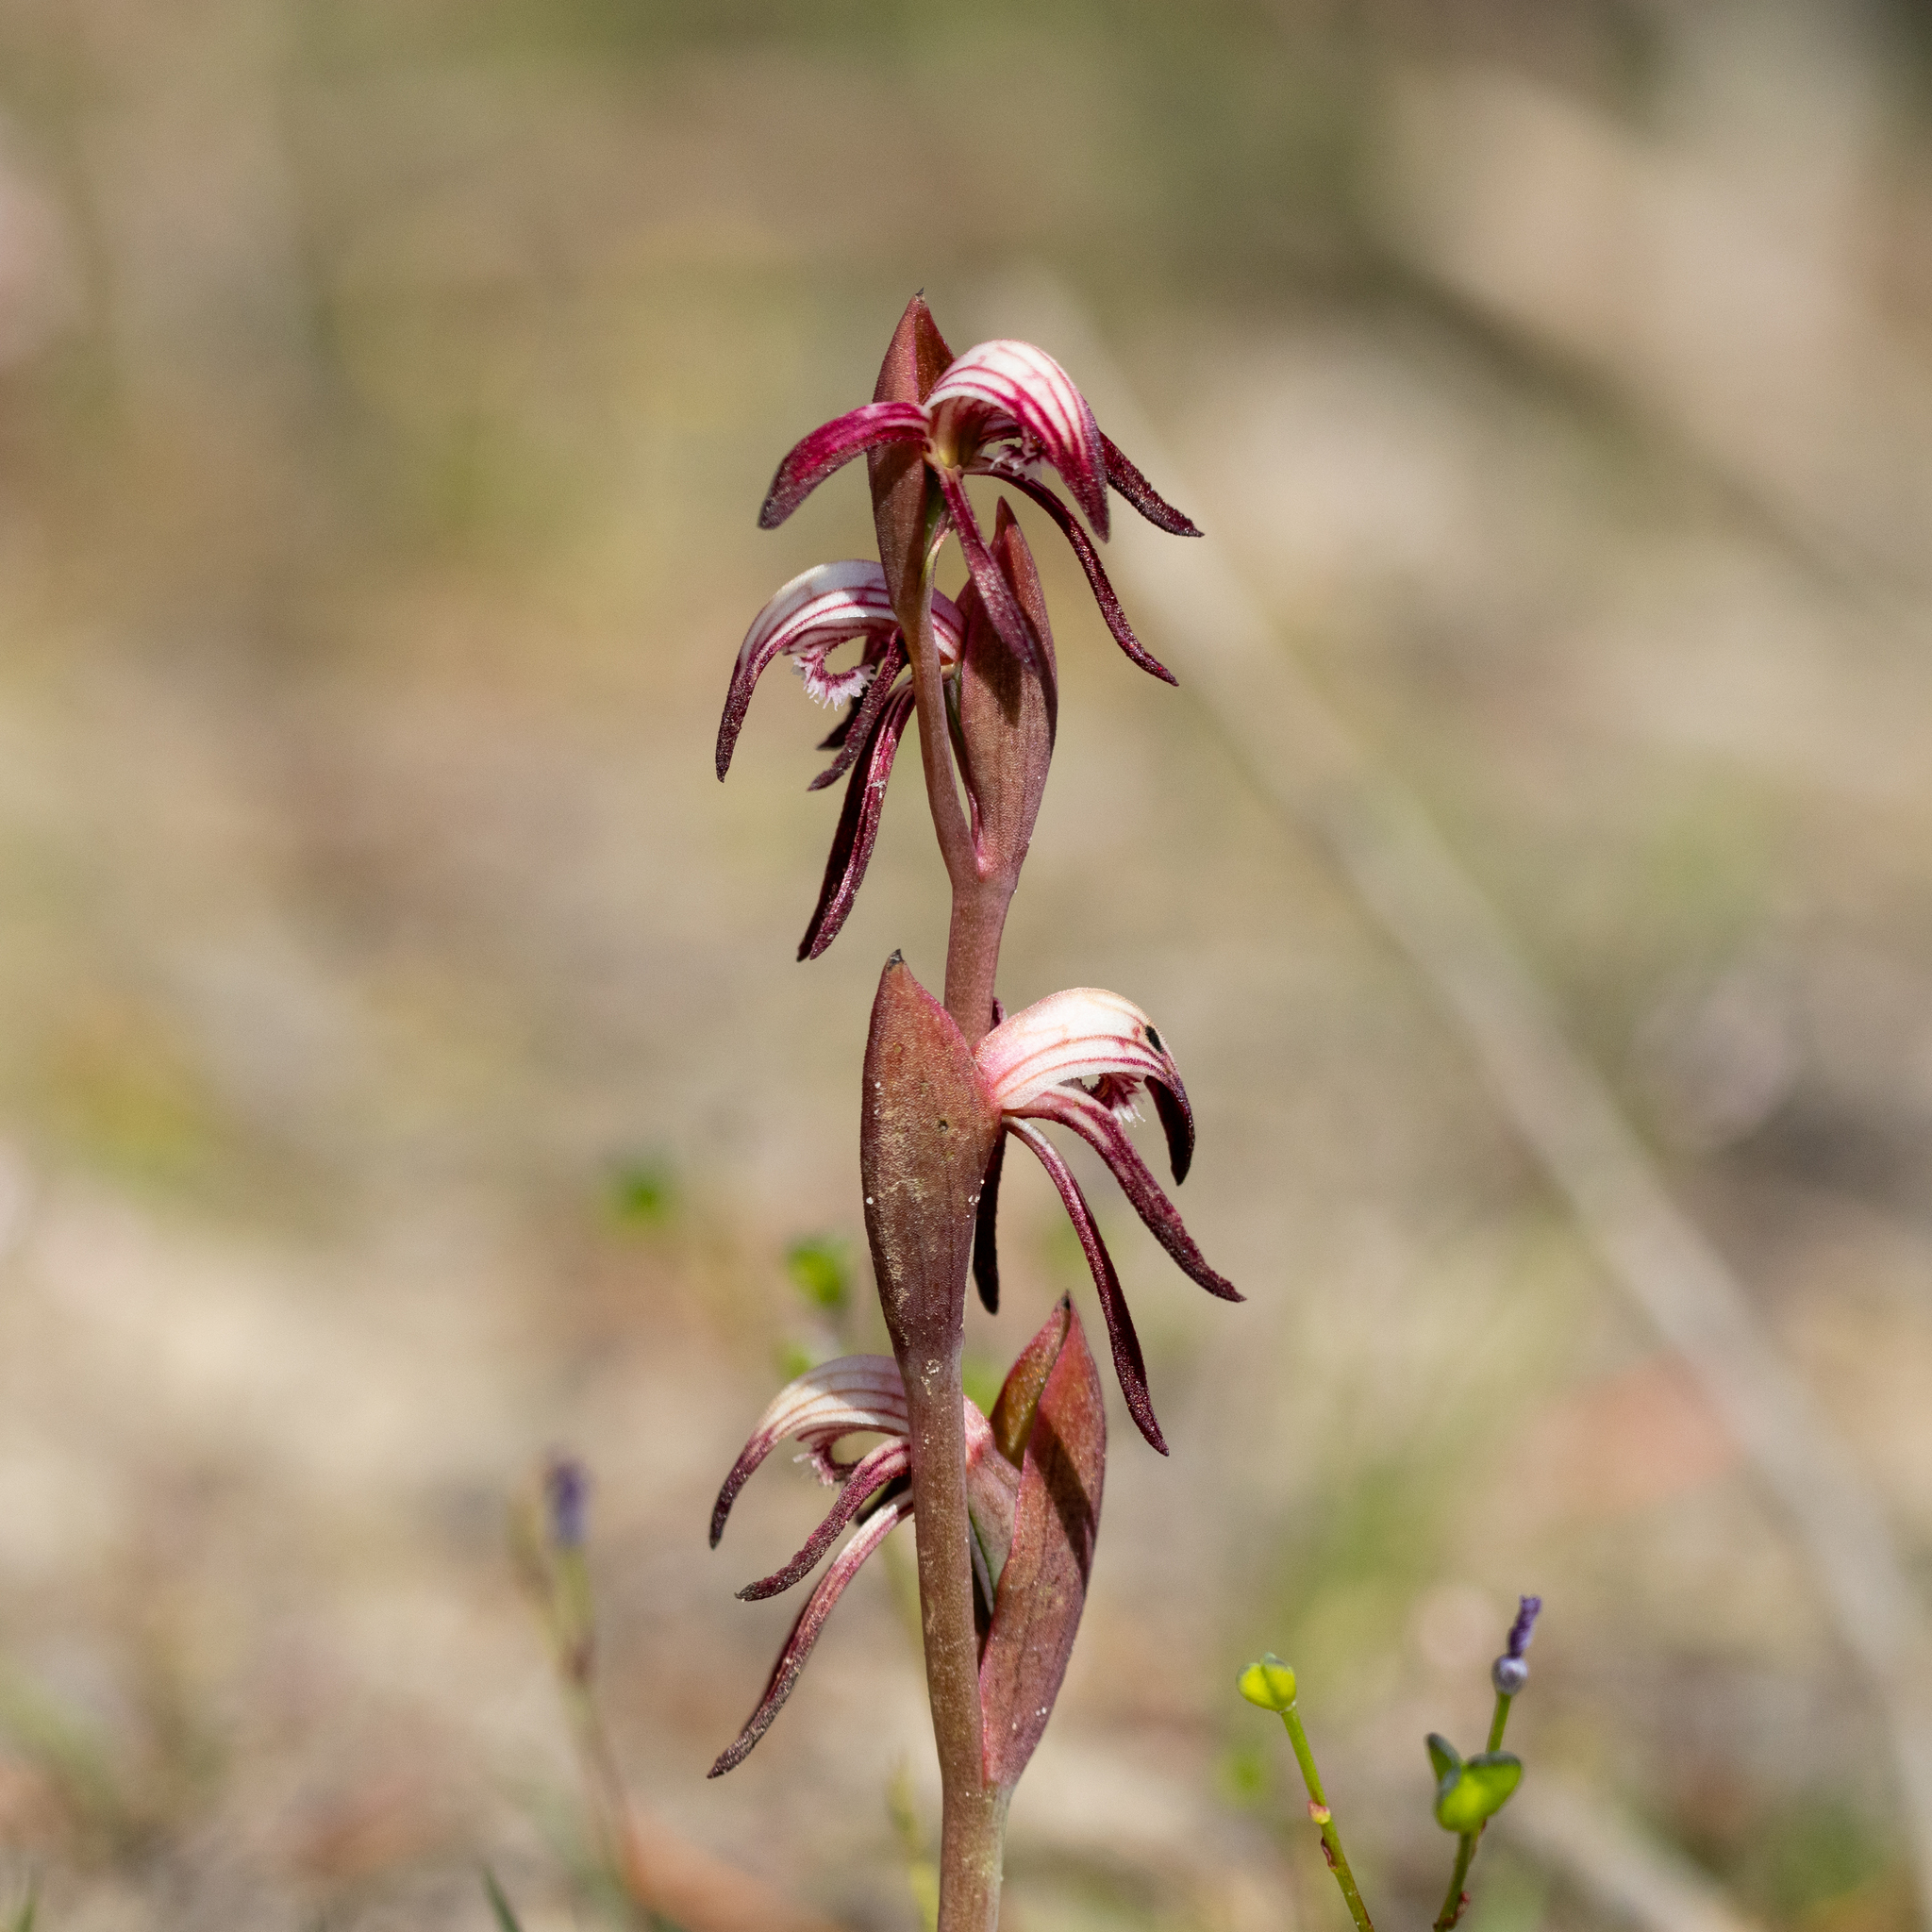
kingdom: Plantae
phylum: Tracheophyta
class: Liliopsida
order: Asparagales
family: Orchidaceae
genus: Pyrorchis
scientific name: Pyrorchis nigricans
